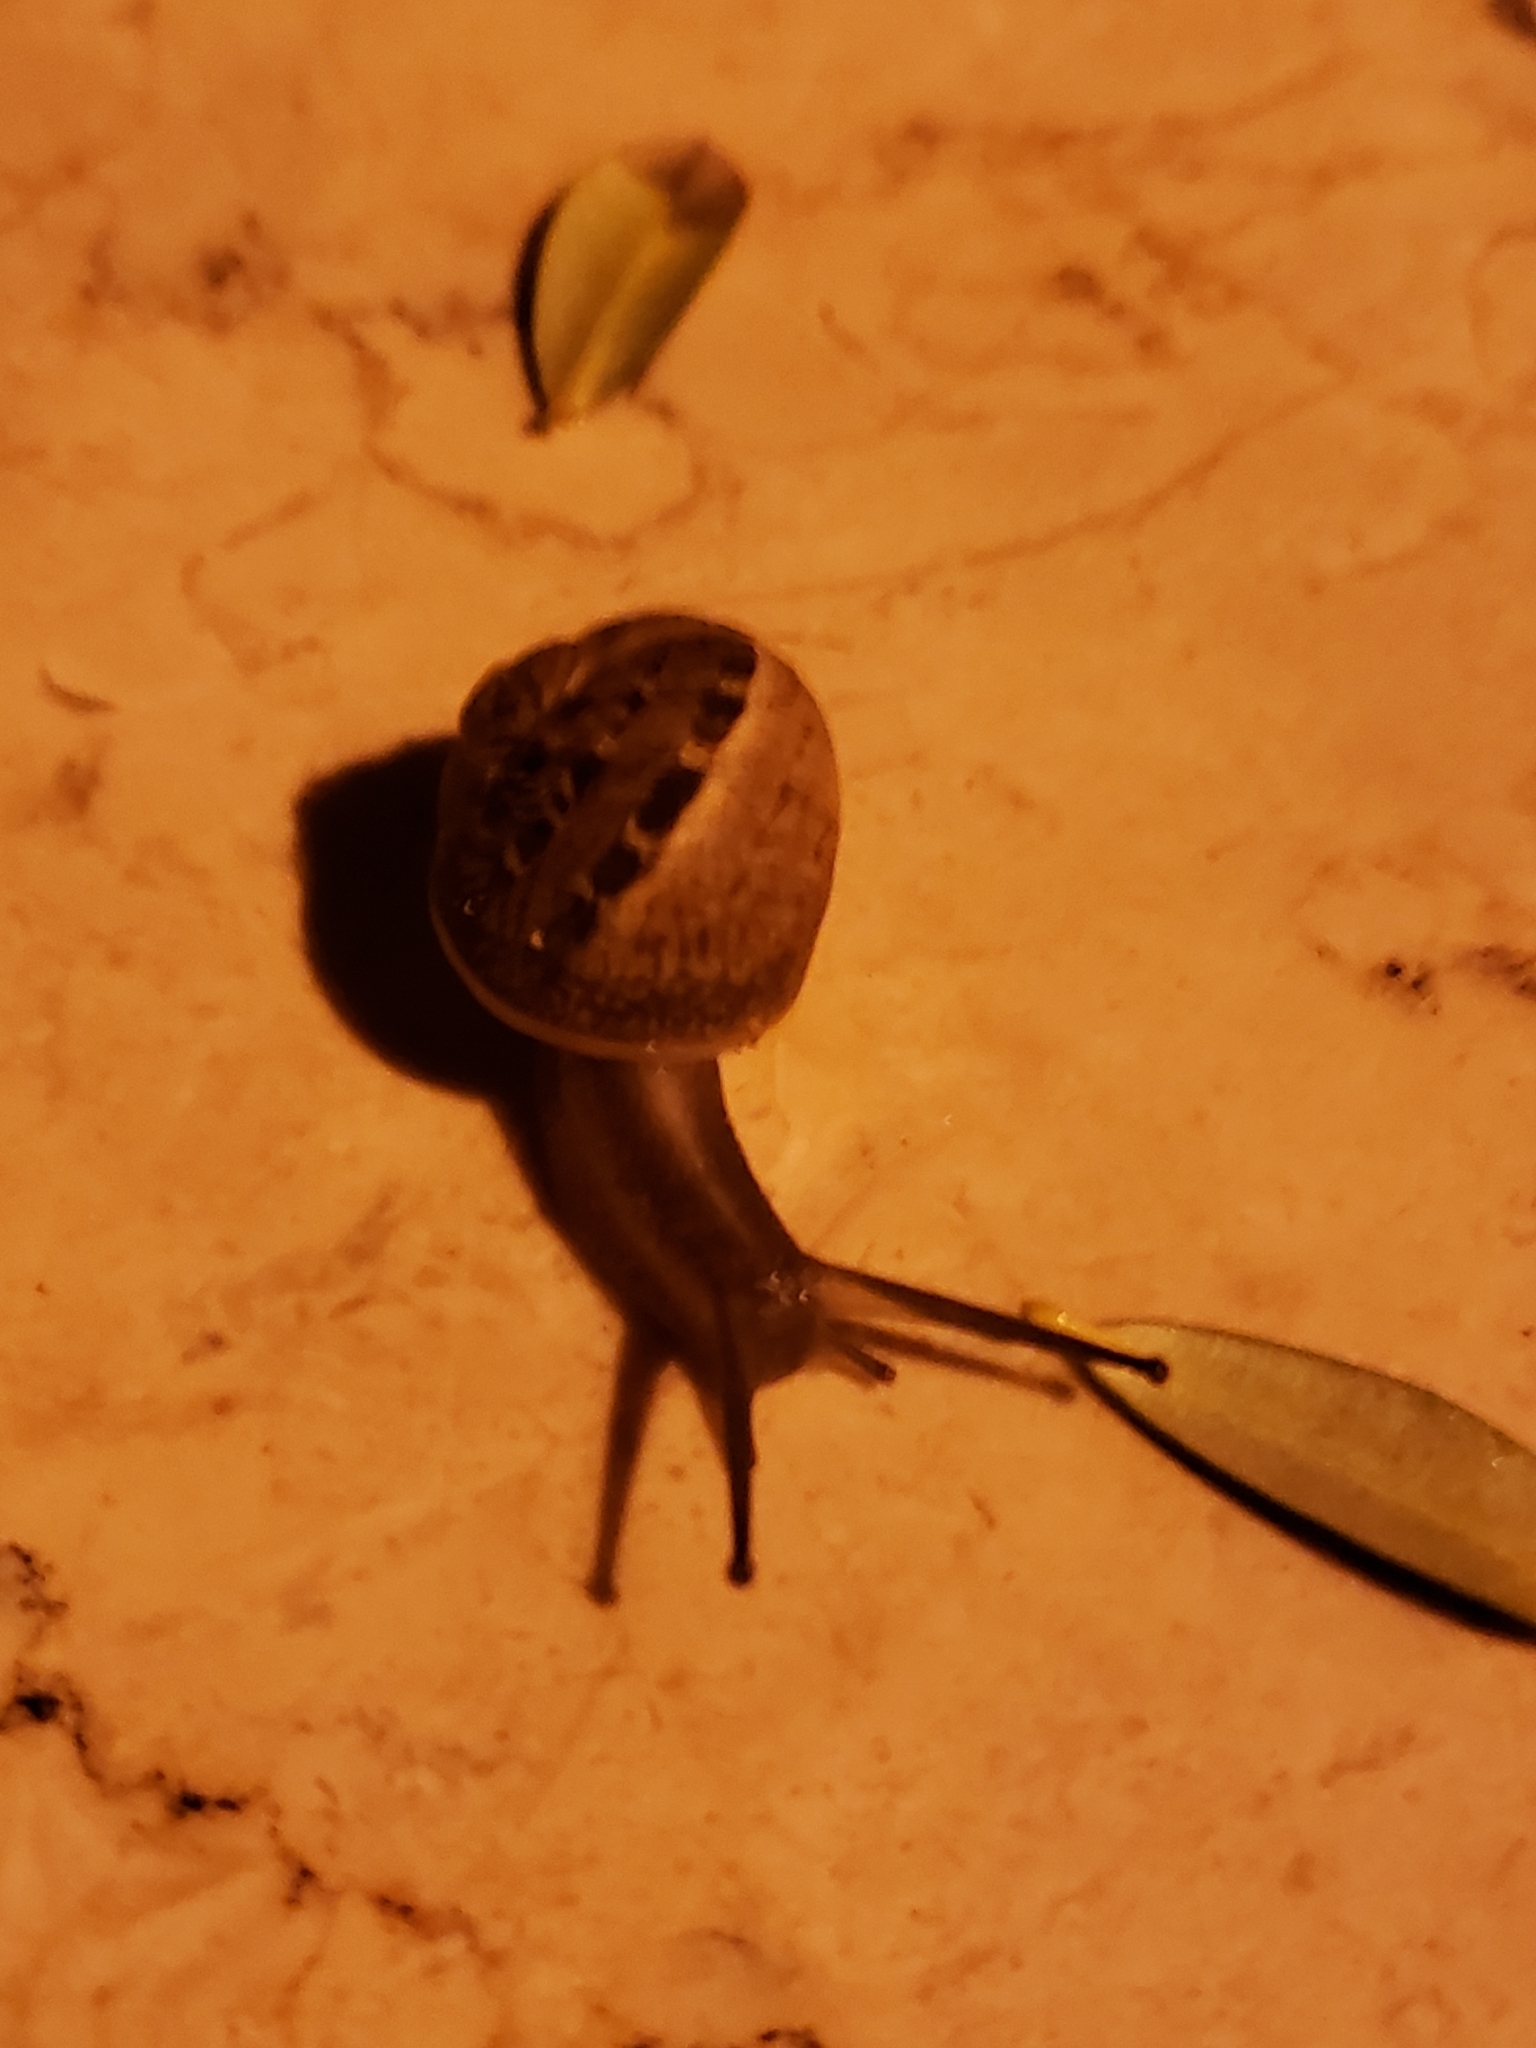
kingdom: Animalia
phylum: Mollusca
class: Gastropoda
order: Stylommatophora
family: Helicidae
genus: Cornu
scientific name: Cornu aspersum
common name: Brown garden snail
